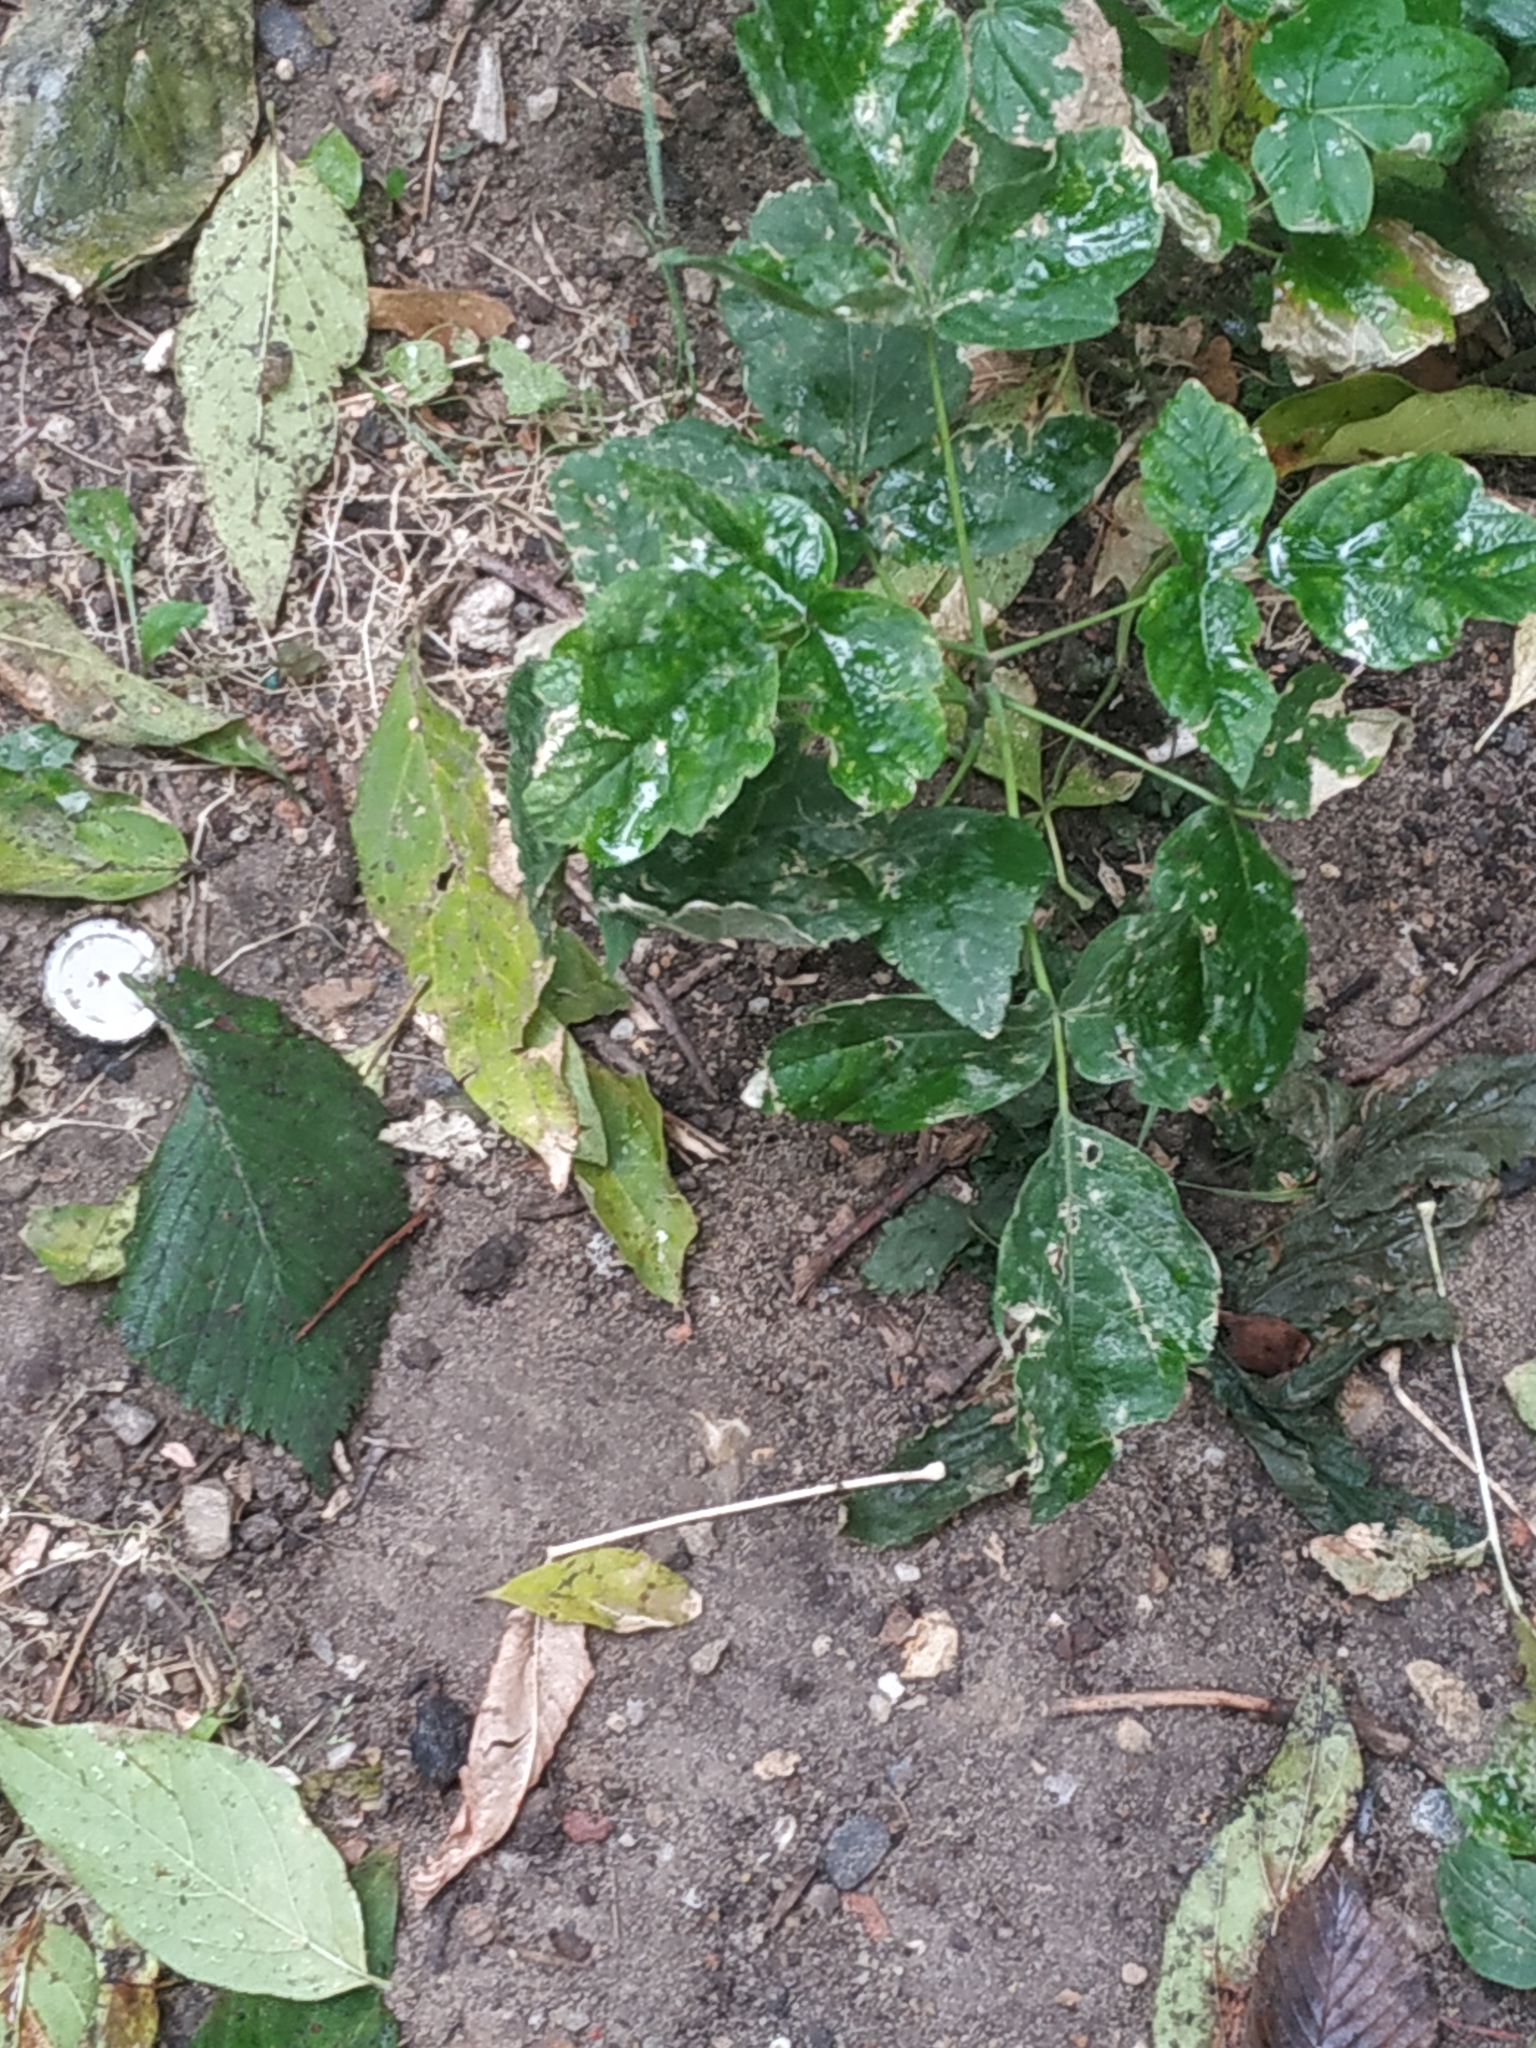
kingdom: Fungi
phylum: Ascomycota
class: Leotiomycetes
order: Helotiales
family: Erysiphaceae
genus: Sawadaea
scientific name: Sawadaea bicornis
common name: Maple mildew
